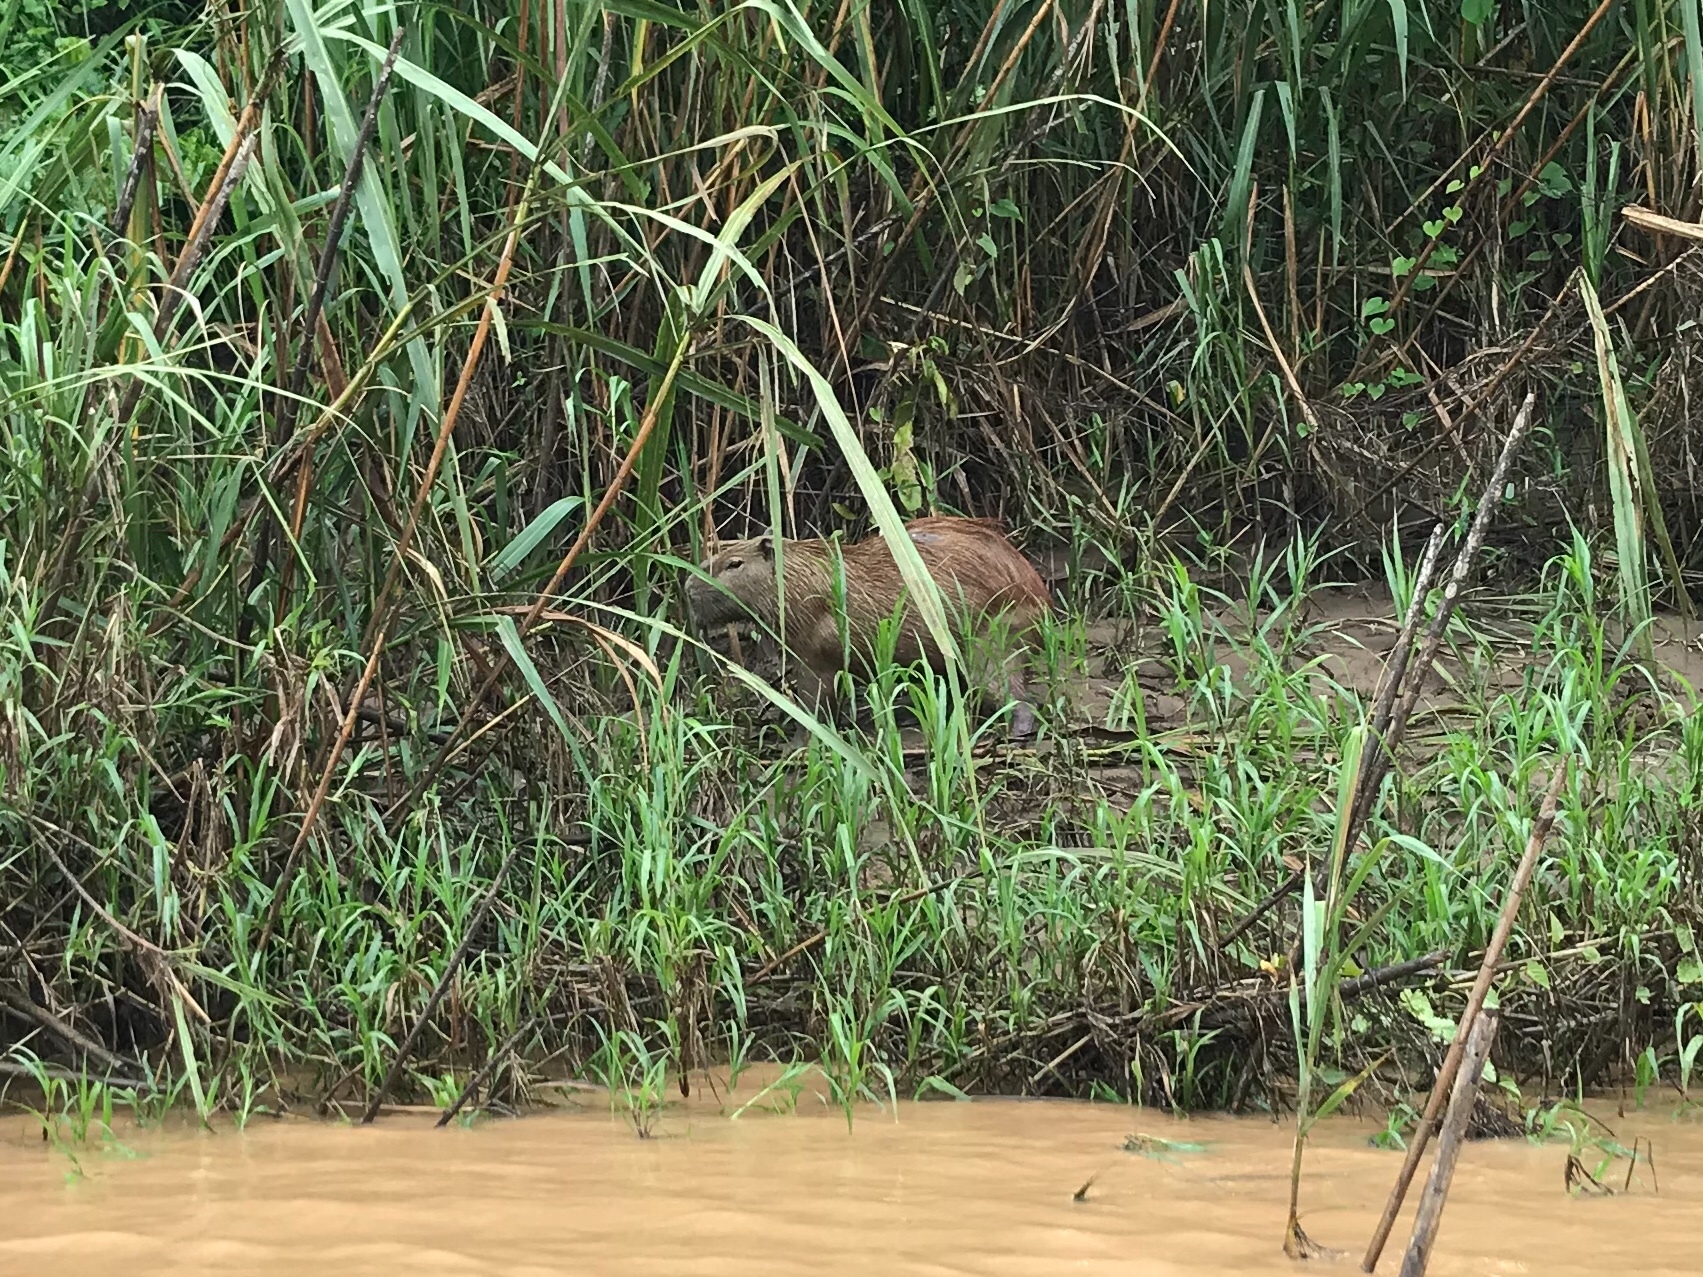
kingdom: Animalia
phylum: Chordata
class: Mammalia
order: Rodentia
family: Caviidae
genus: Hydrochoerus
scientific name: Hydrochoerus hydrochaeris
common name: Capybara
